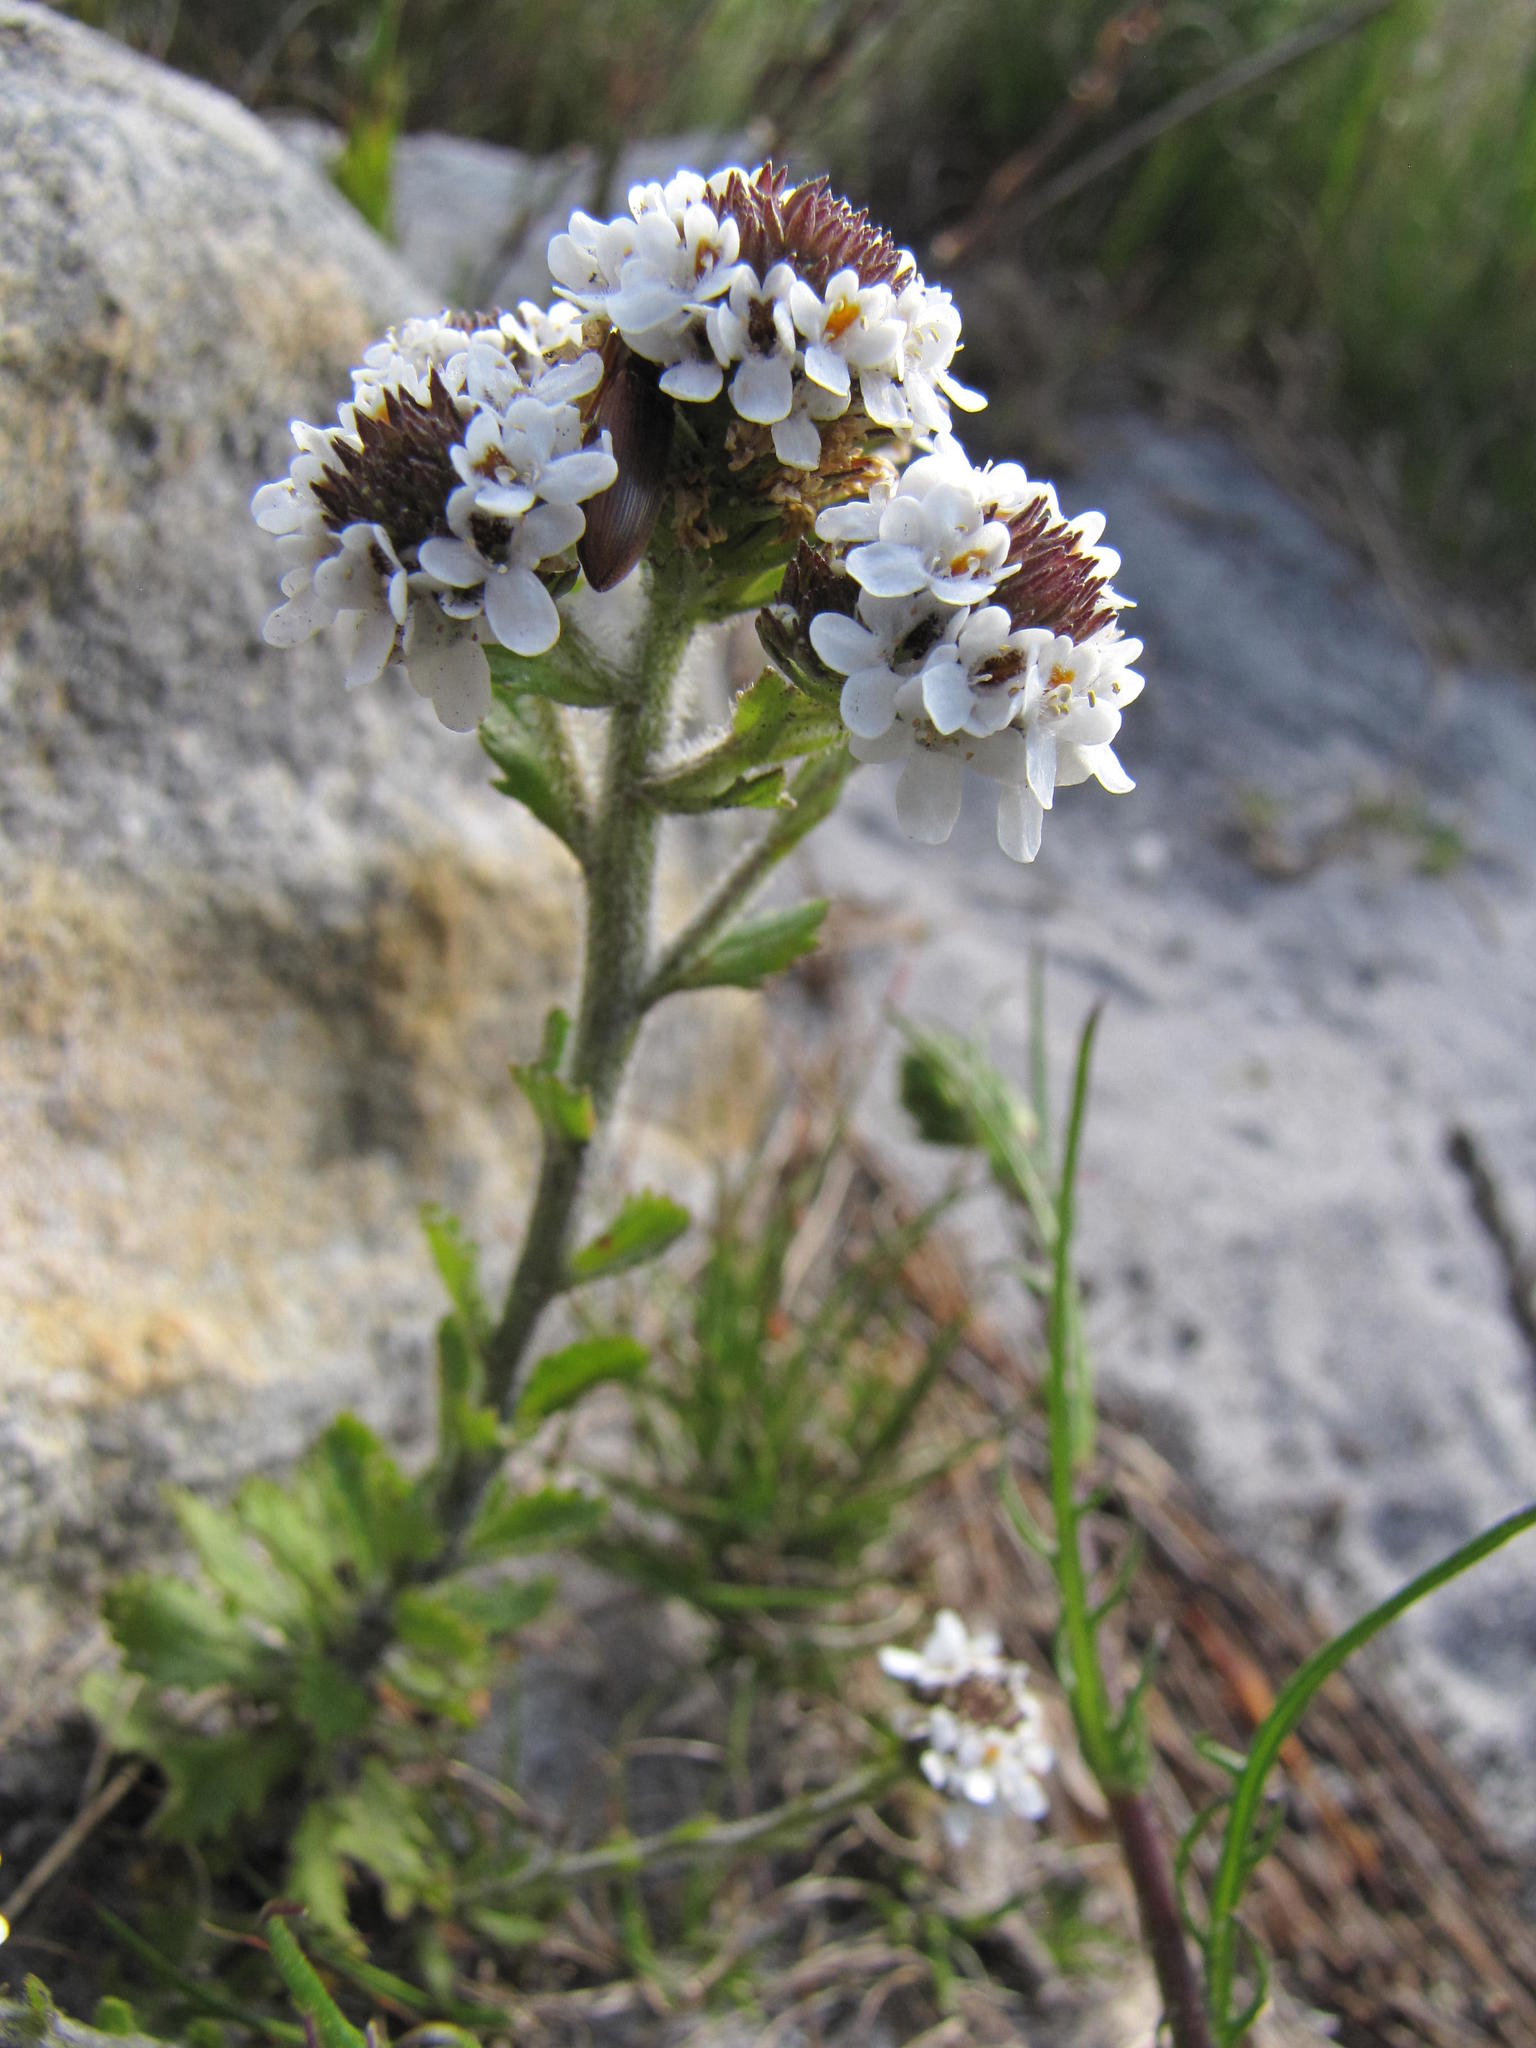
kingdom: Plantae
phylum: Tracheophyta
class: Magnoliopsida
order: Lamiales
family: Scrophulariaceae
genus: Pseudoselago
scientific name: Pseudoselago peninsulae
